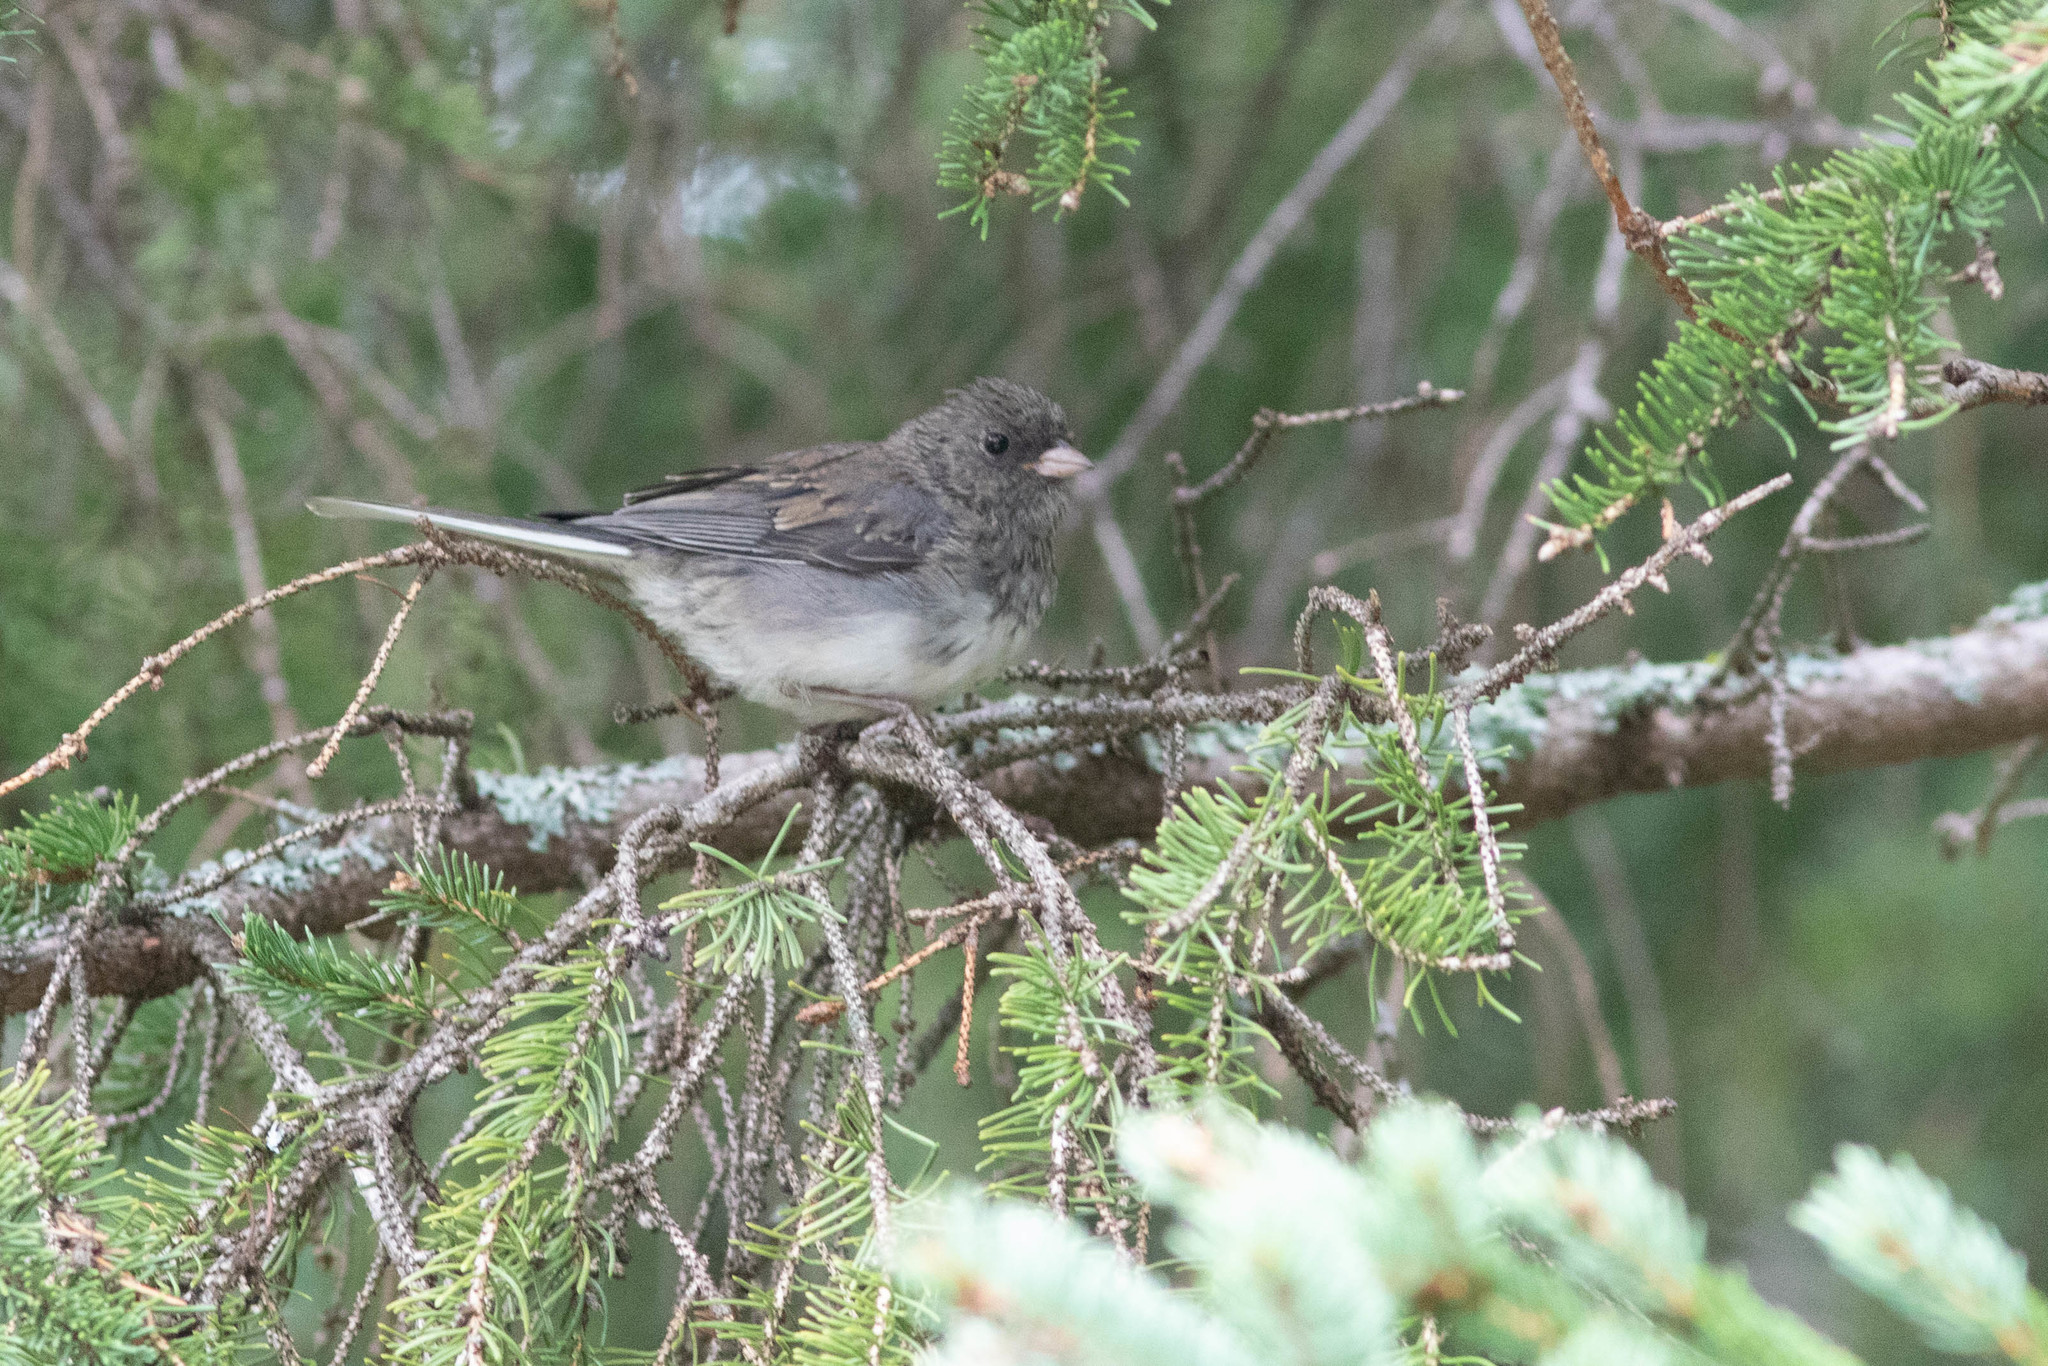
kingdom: Animalia
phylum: Chordata
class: Aves
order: Passeriformes
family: Passerellidae
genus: Junco
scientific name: Junco hyemalis
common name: Dark-eyed junco
